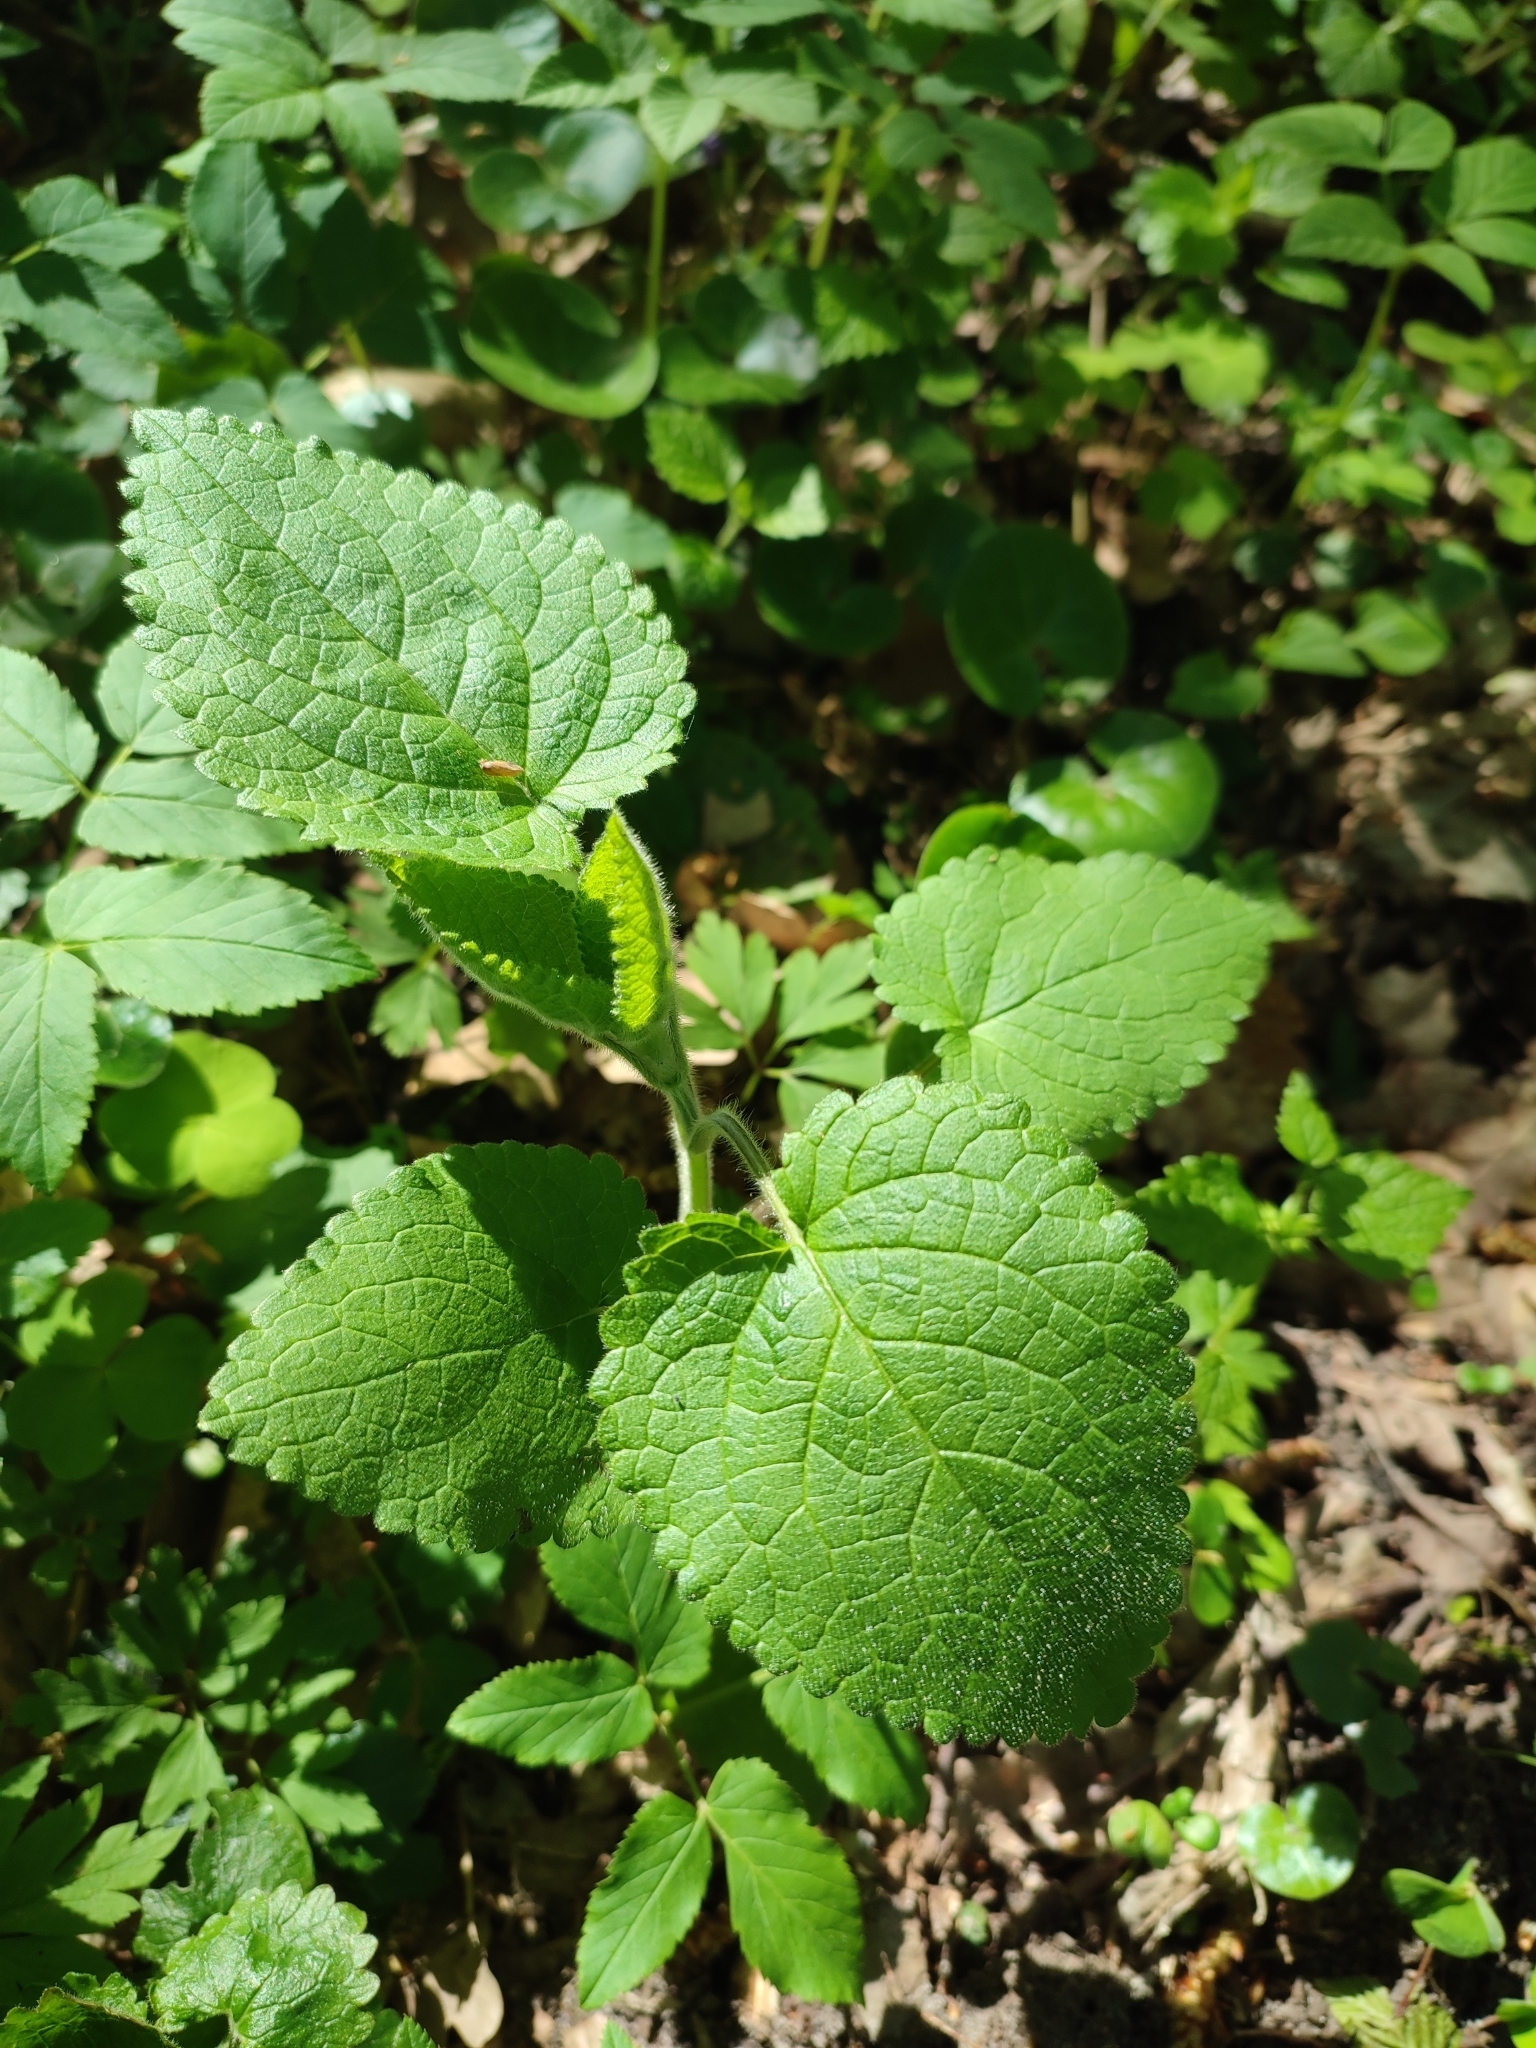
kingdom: Plantae
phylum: Tracheophyta
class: Magnoliopsida
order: Lamiales
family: Lamiaceae
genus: Stachys
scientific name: Stachys sylvatica
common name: Hedge woundwort
